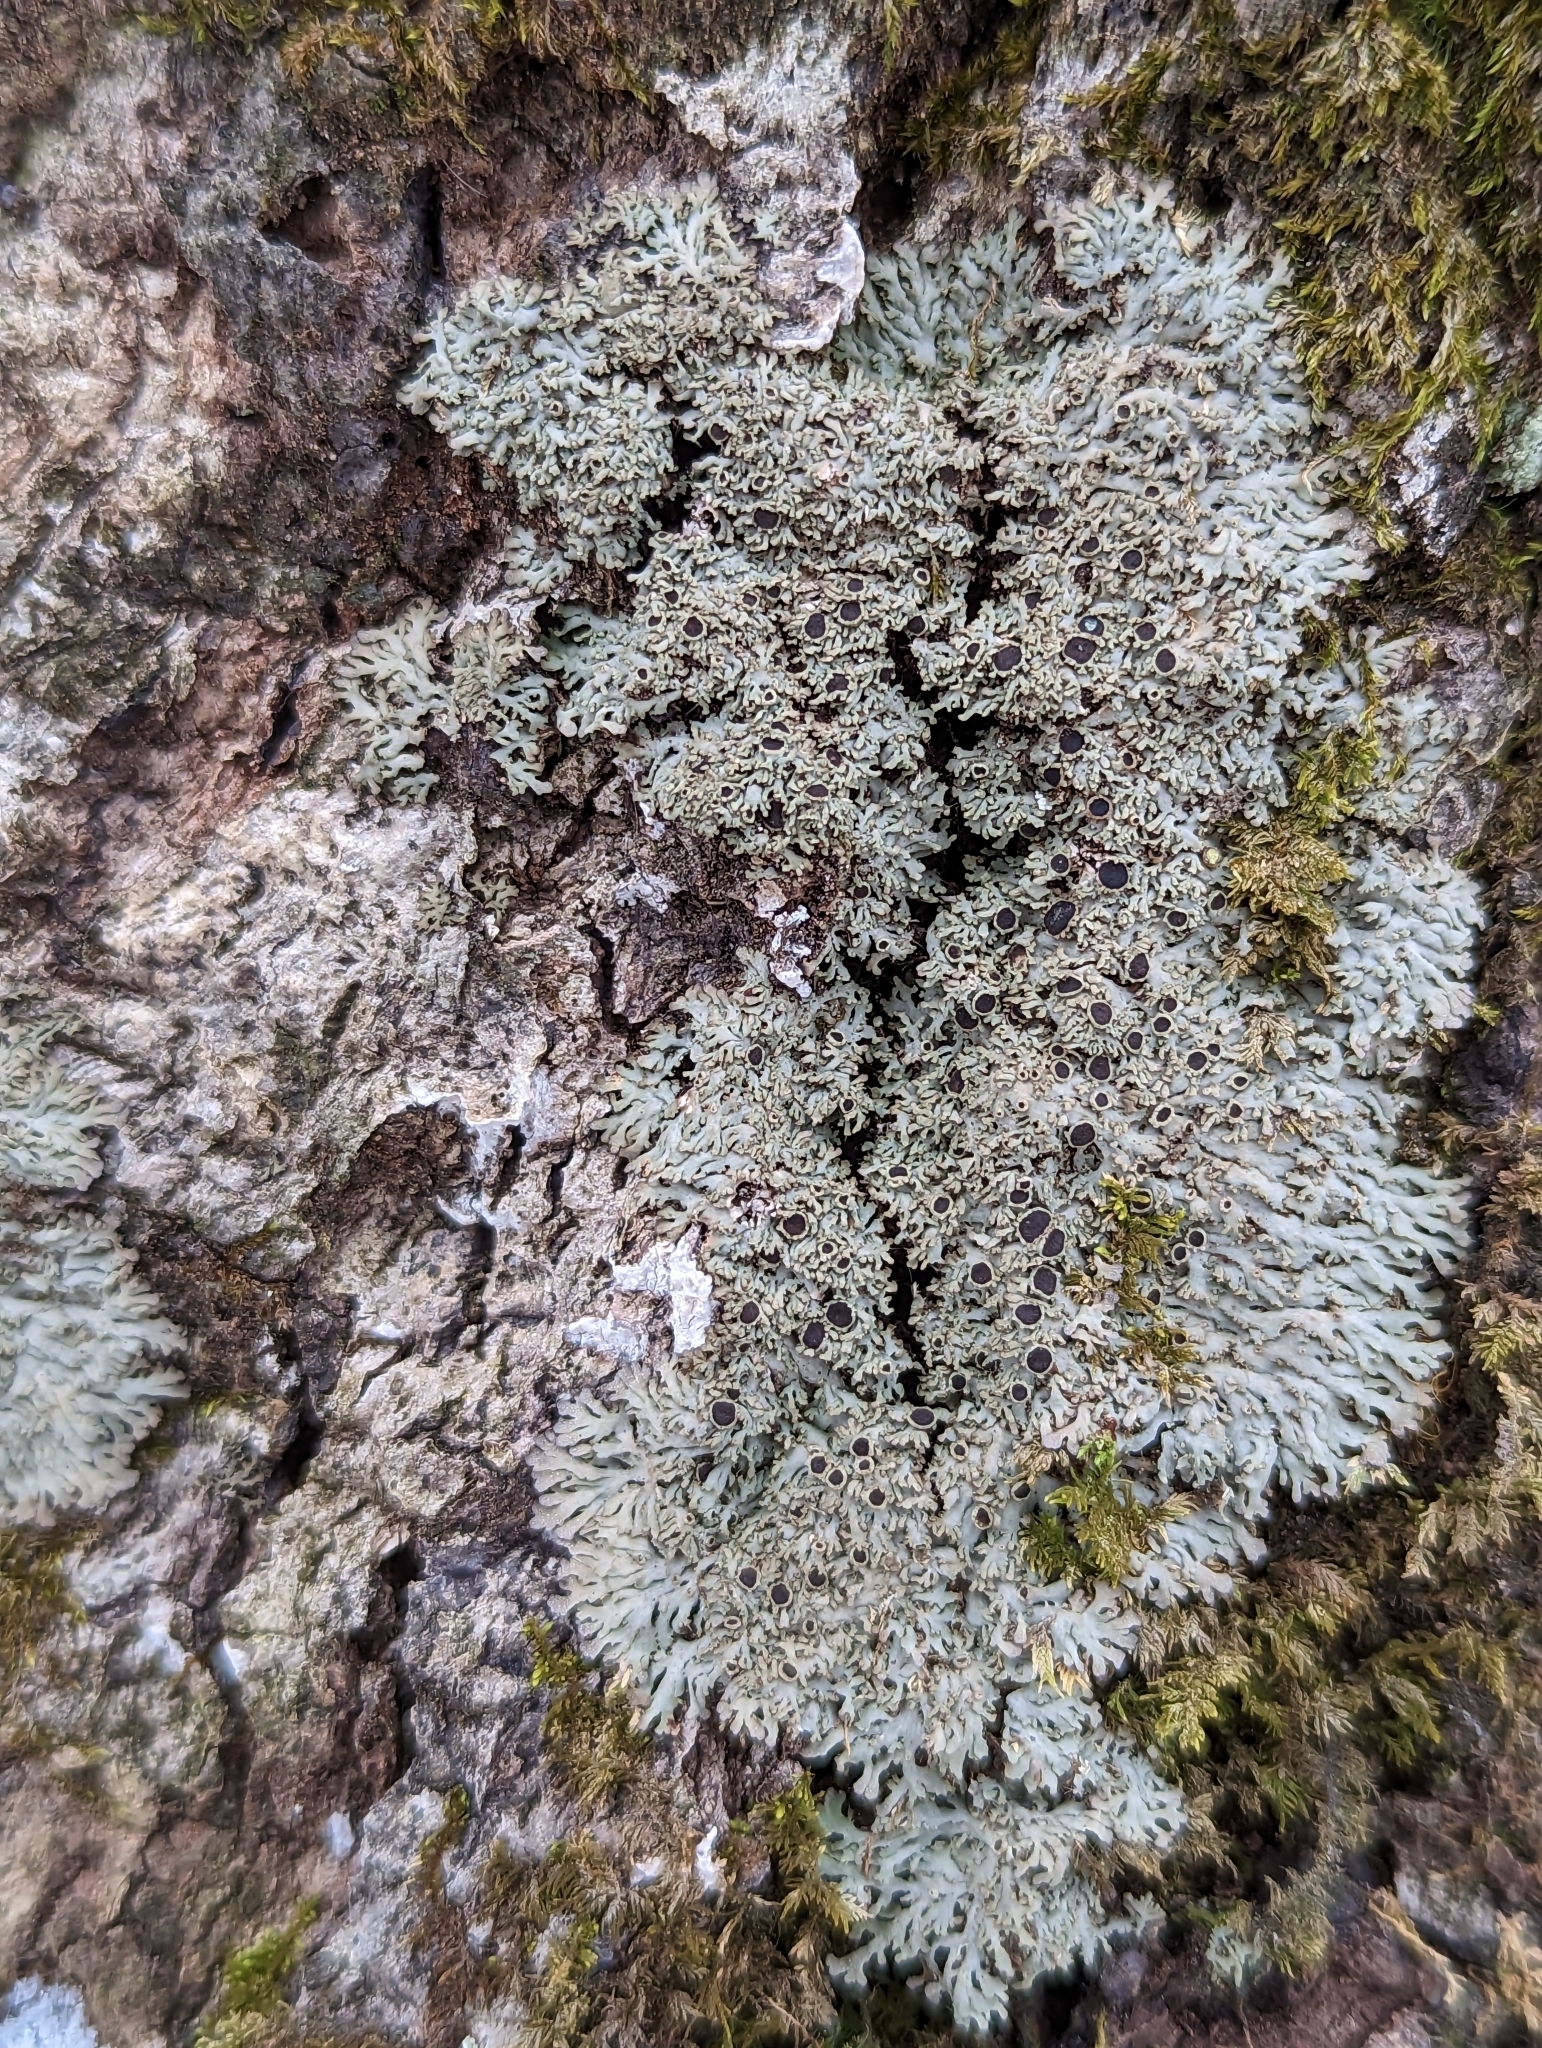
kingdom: Fungi
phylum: Ascomycota
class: Lecanoromycetes
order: Caliciales
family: Physciaceae
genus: Kurokawia
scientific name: Kurokawia palmulata
